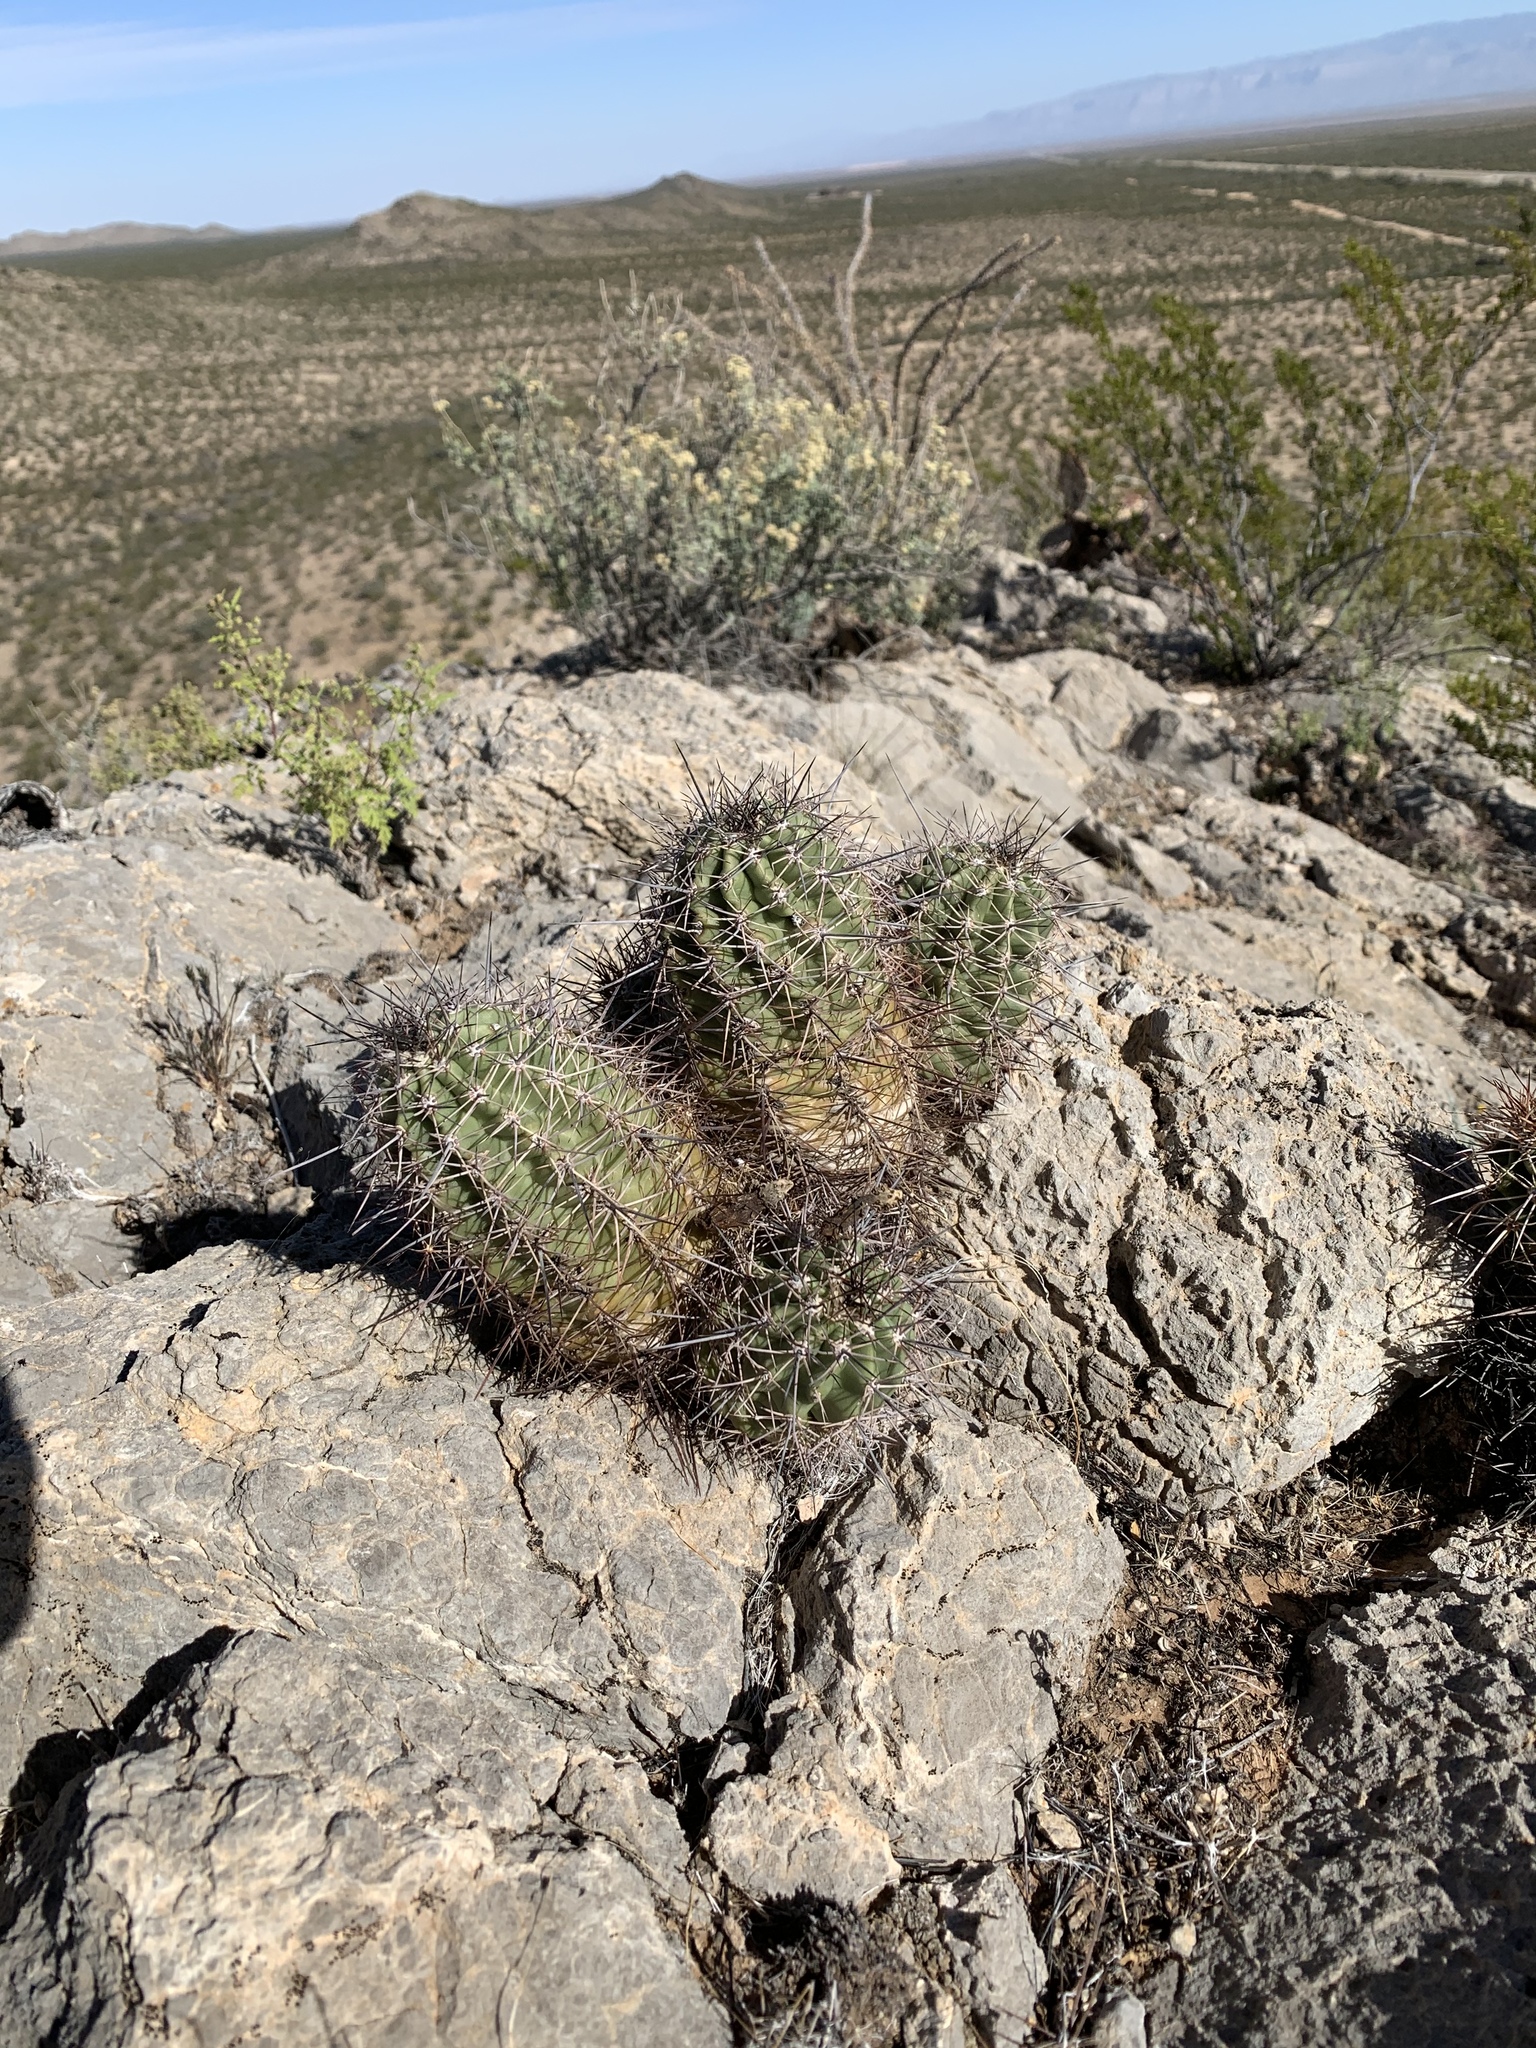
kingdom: Plantae
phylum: Tracheophyta
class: Magnoliopsida
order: Caryophyllales
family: Cactaceae
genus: Echinocereus
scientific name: Echinocereus coccineus
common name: Scarlet hedgehog cactus
